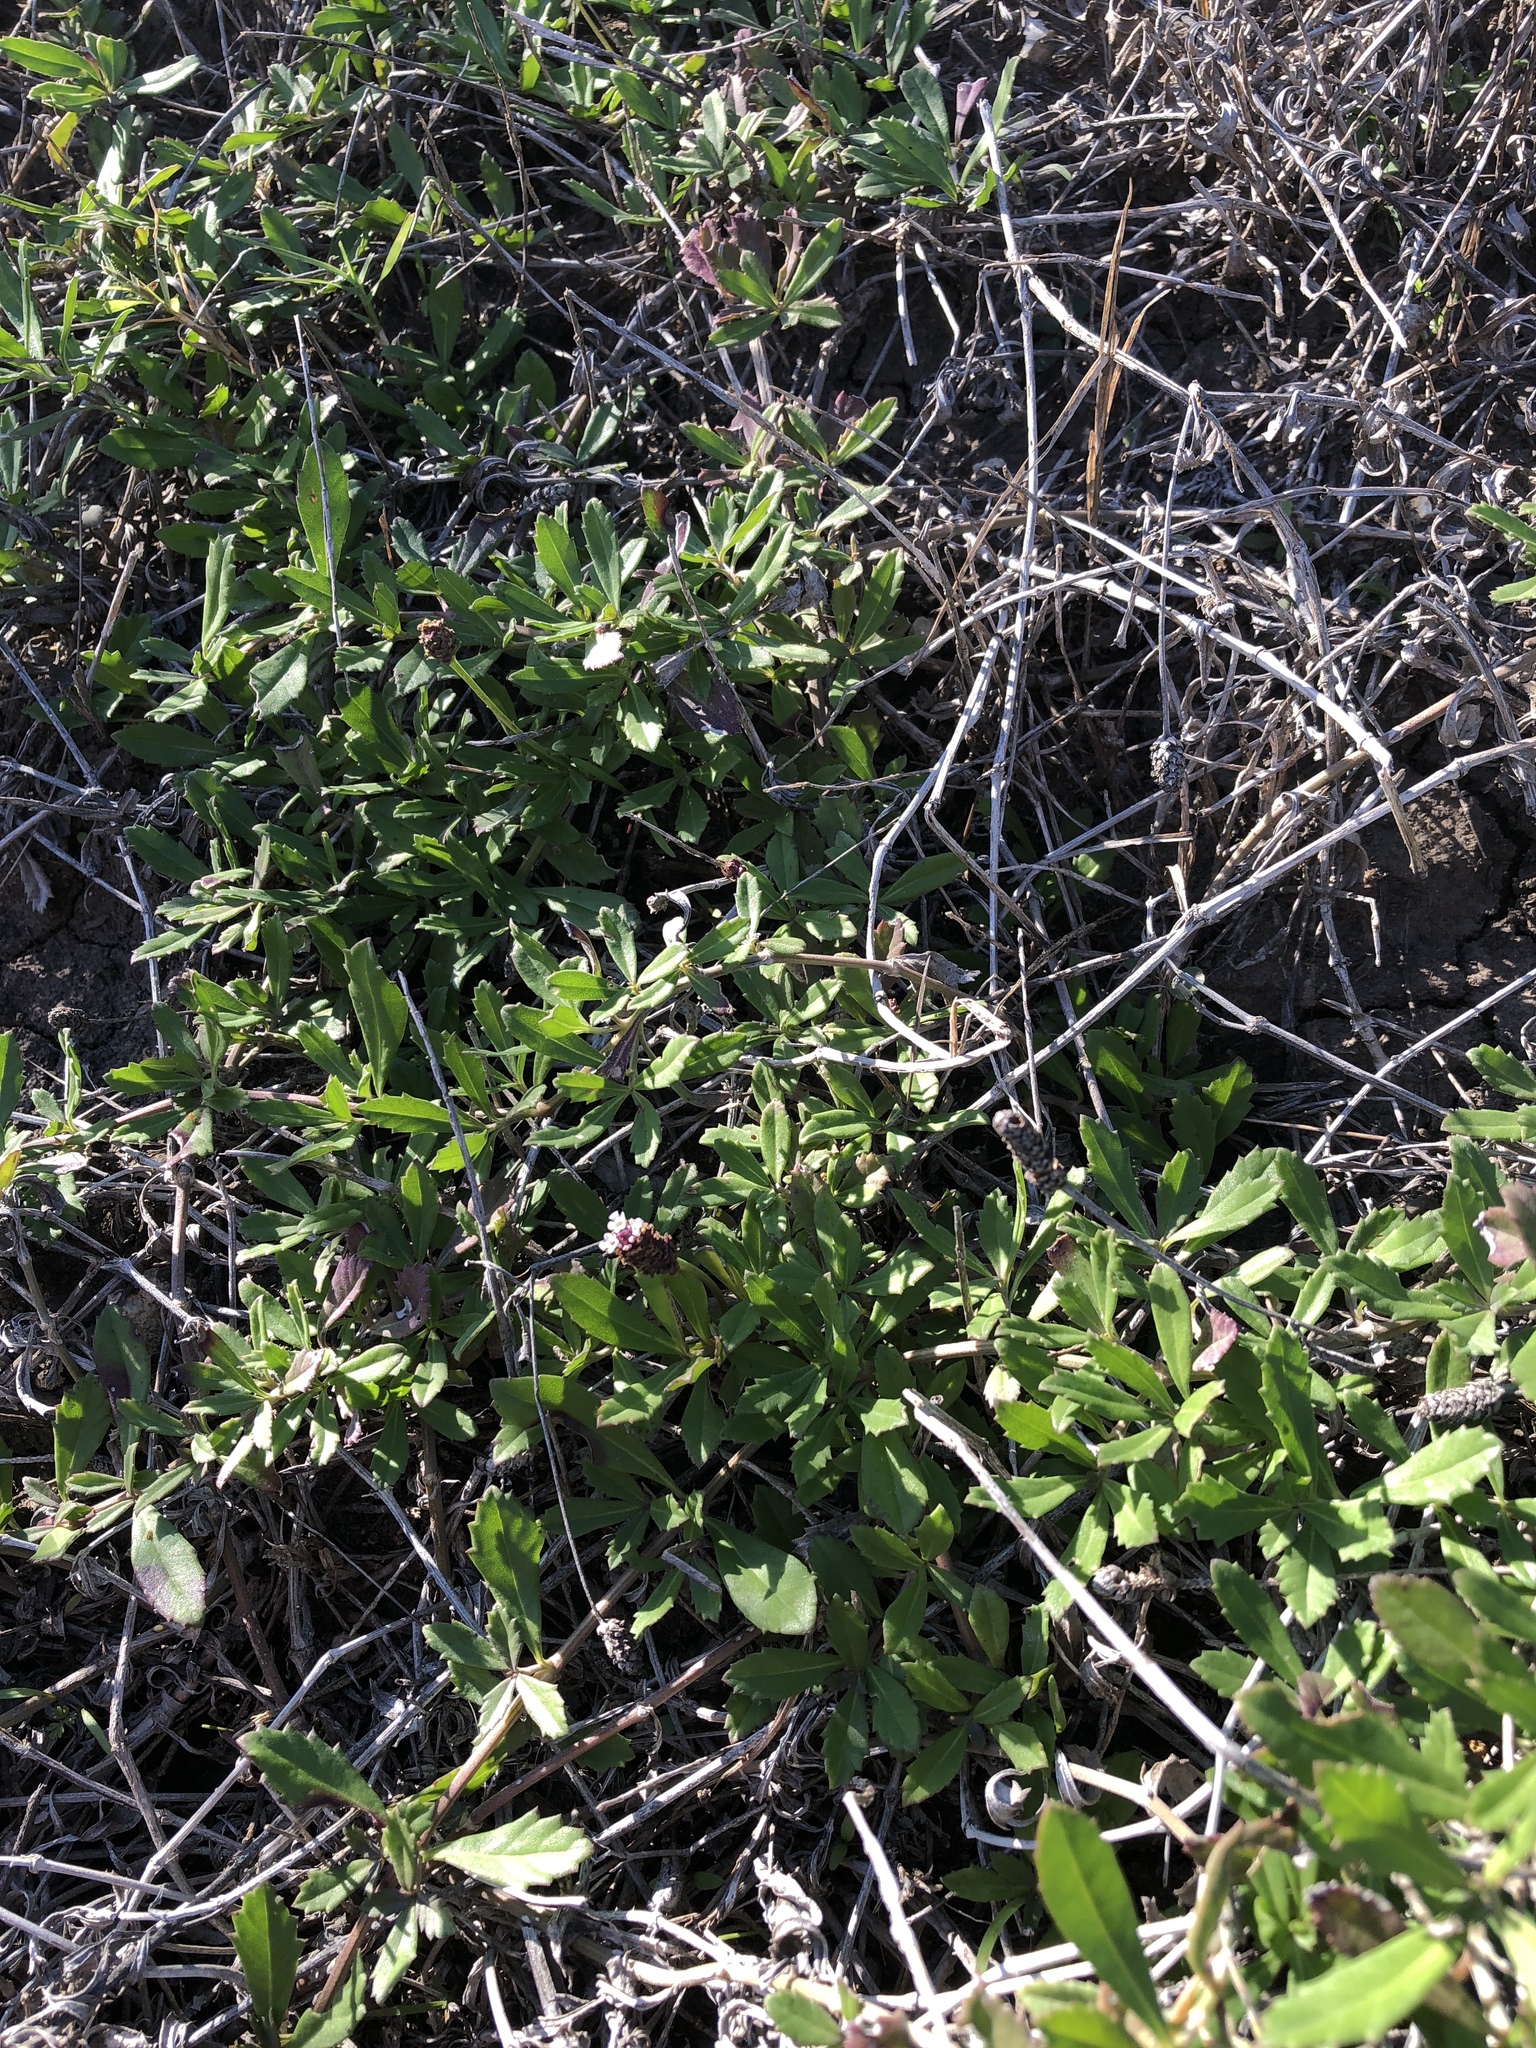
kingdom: Plantae
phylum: Tracheophyta
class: Magnoliopsida
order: Lamiales
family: Verbenaceae
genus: Phyla
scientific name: Phyla nodiflora
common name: Frogfruit
